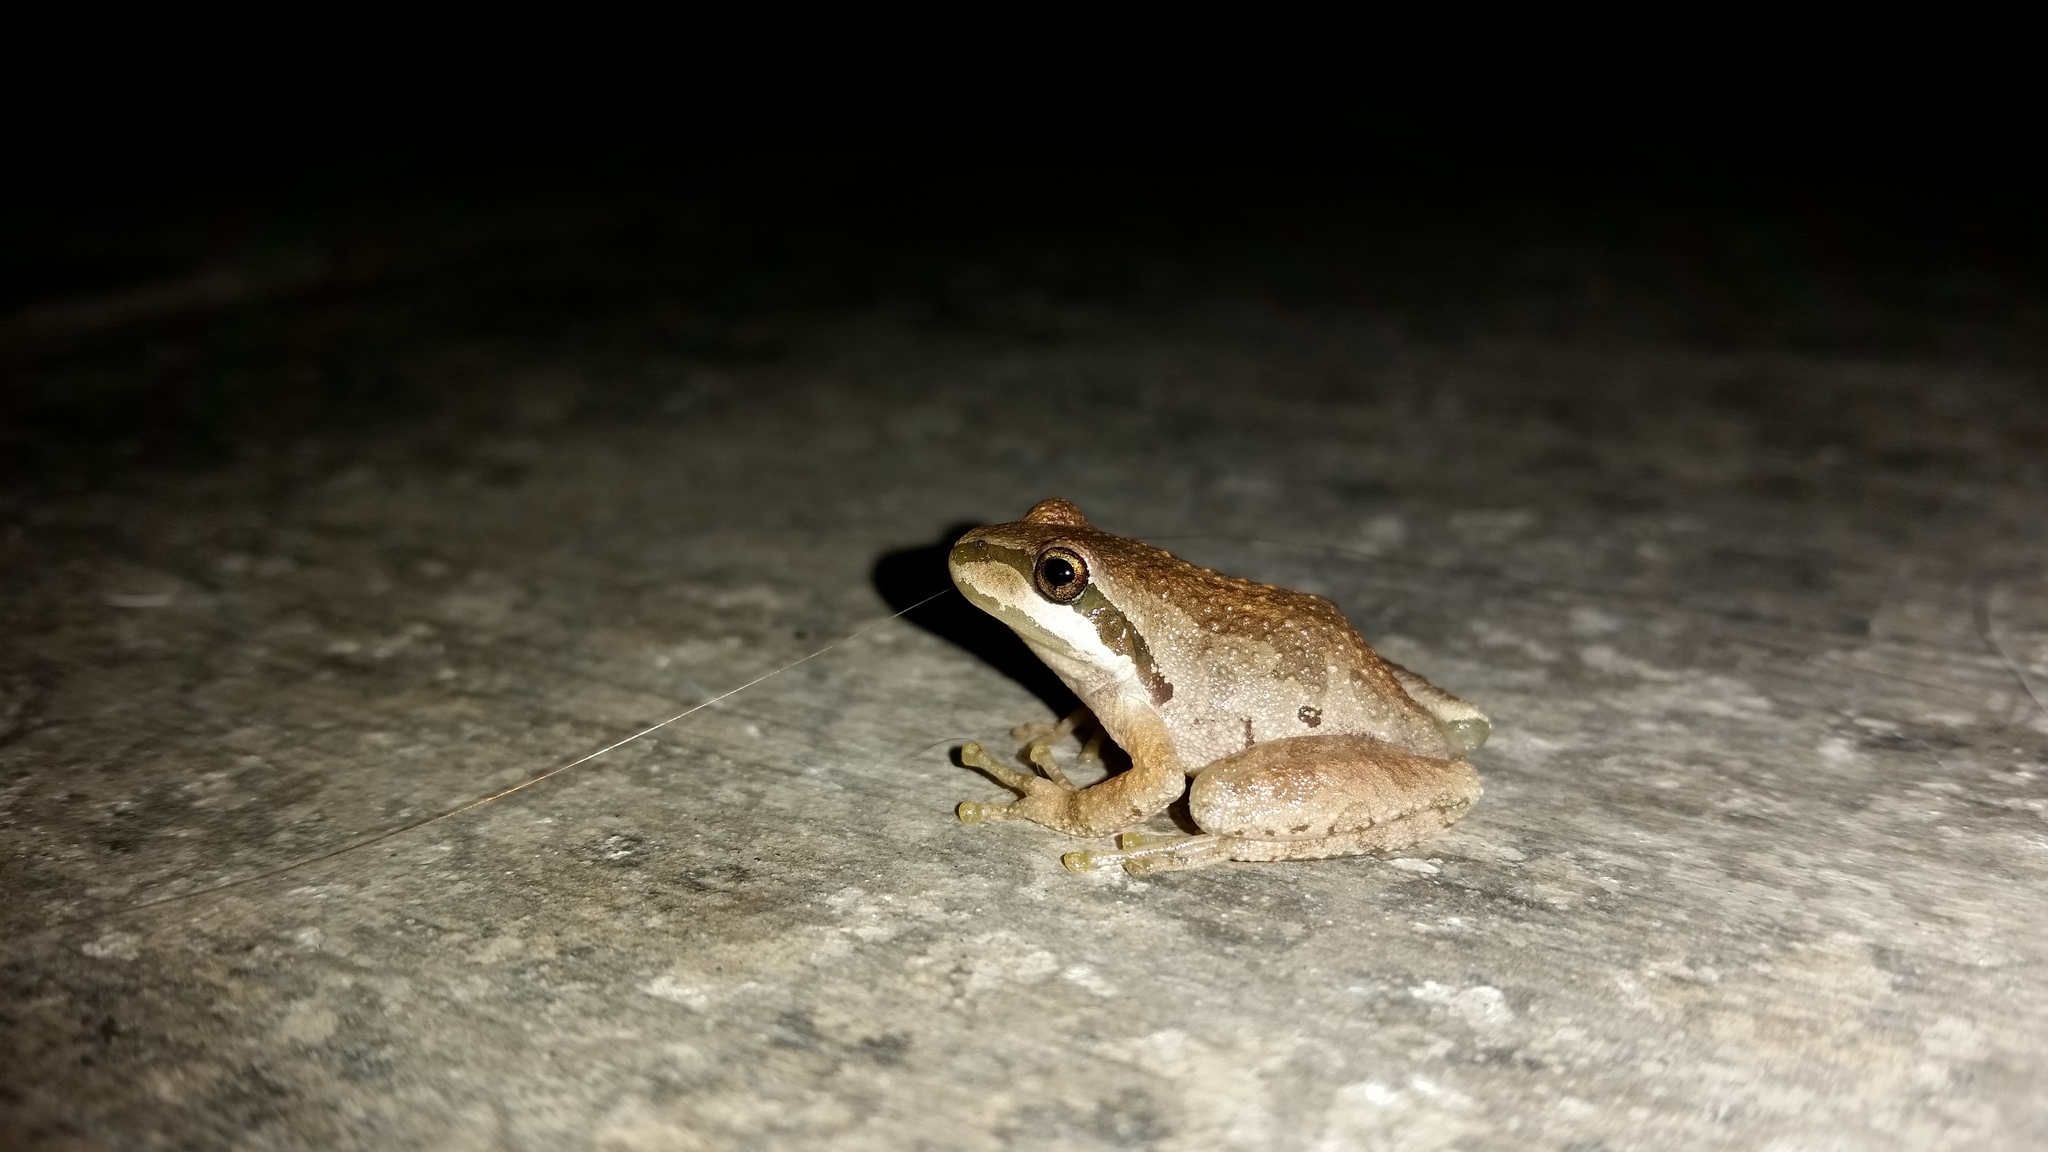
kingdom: Animalia
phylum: Chordata
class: Amphibia
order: Anura
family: Hylidae
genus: Pseudacris
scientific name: Pseudacris regilla
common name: Pacific chorus frog
